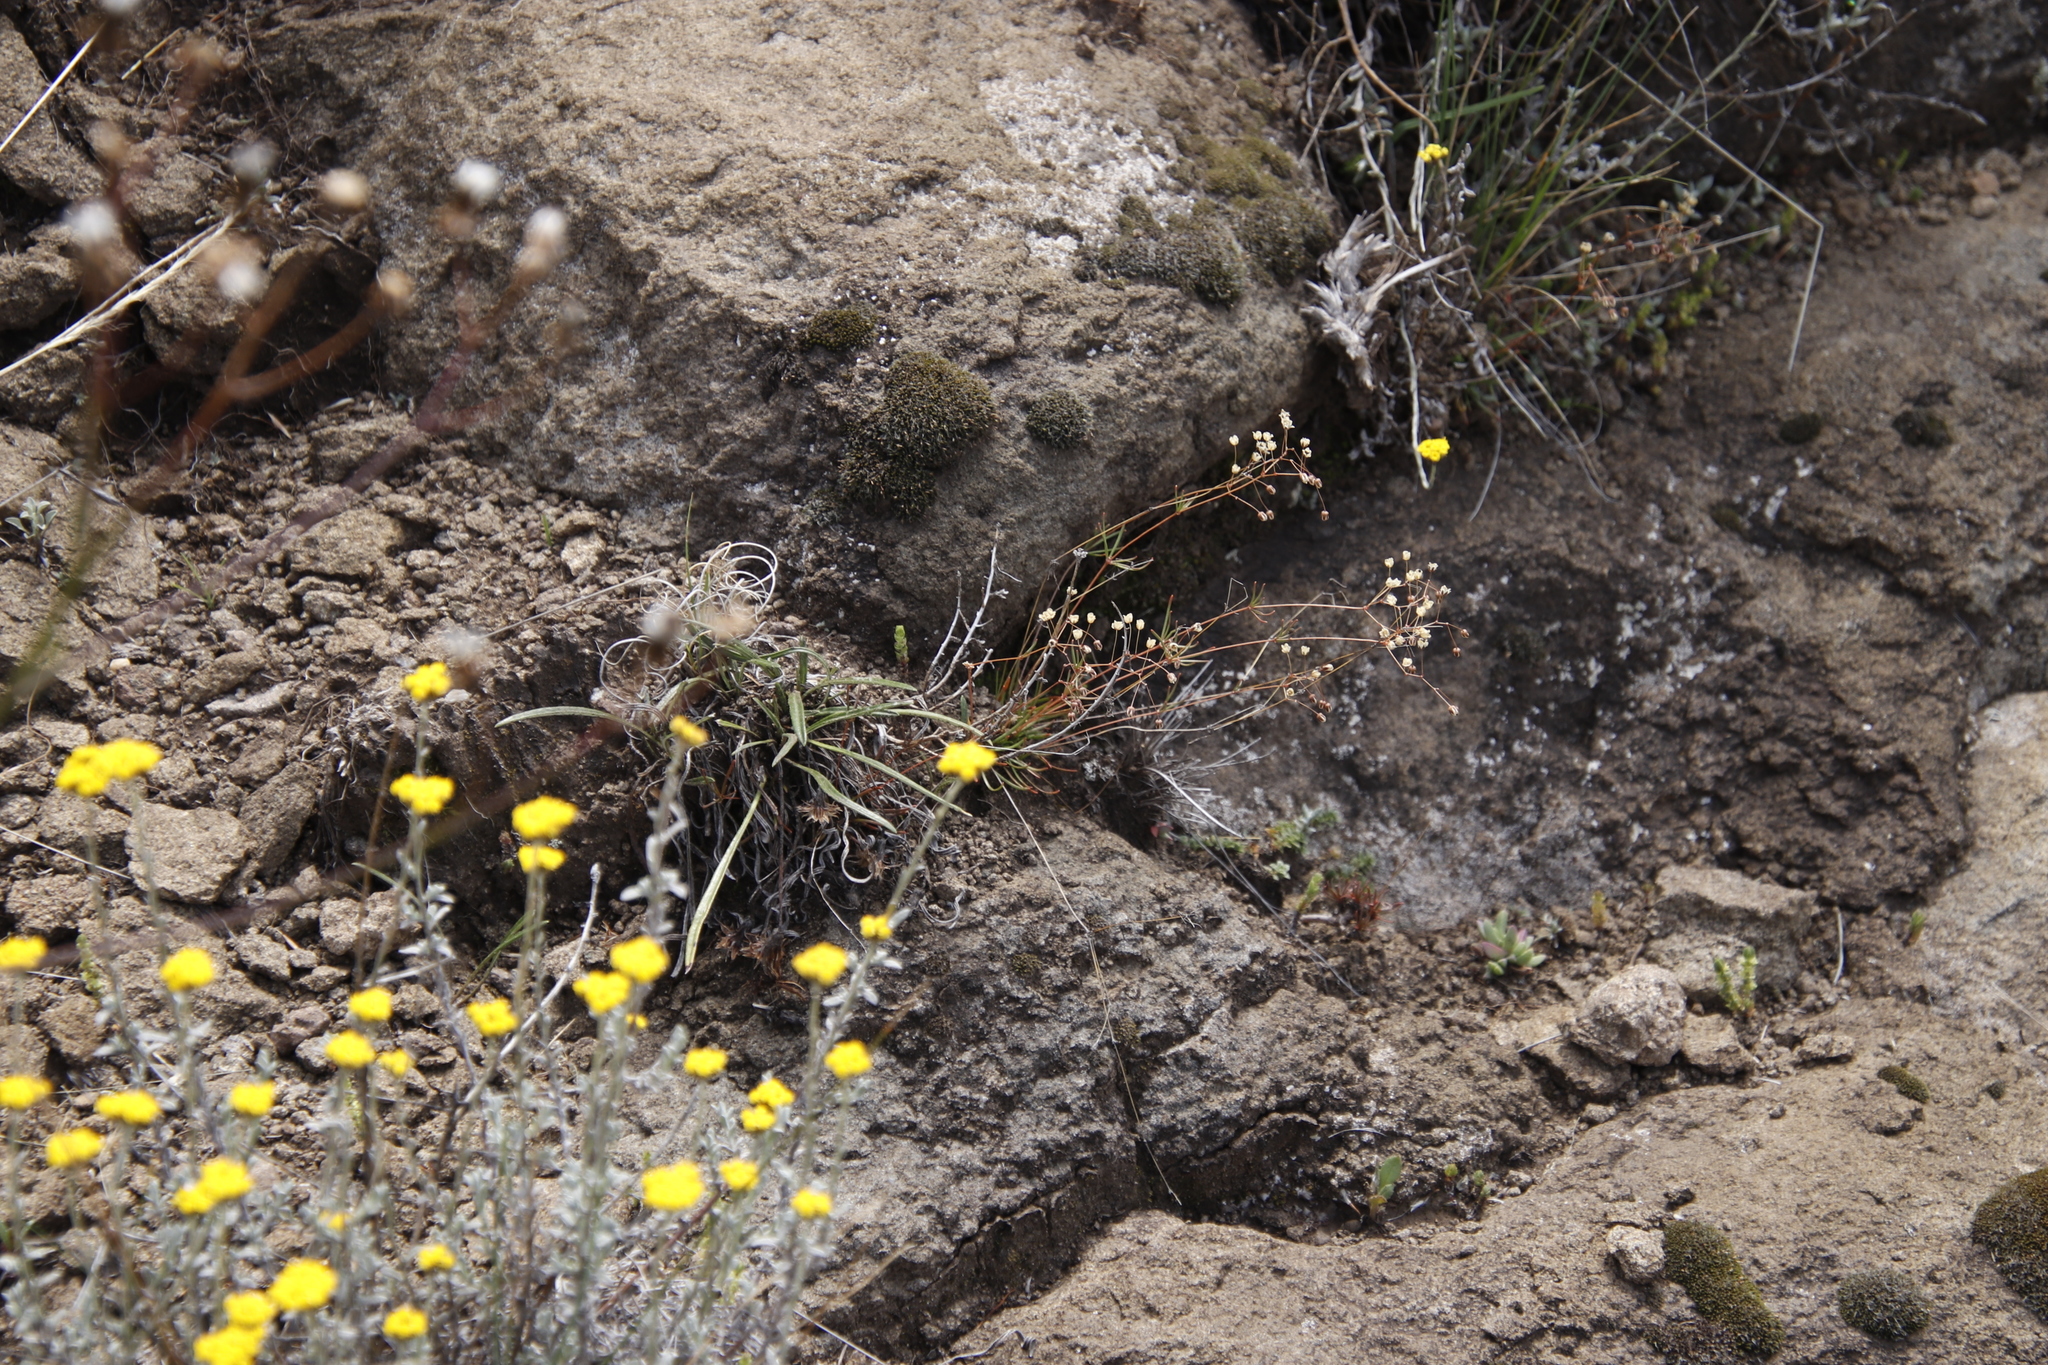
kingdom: Plantae
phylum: Tracheophyta
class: Magnoliopsida
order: Caryophyllales
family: Molluginaceae
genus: Pharnaceum
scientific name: Pharnaceum alpinum
